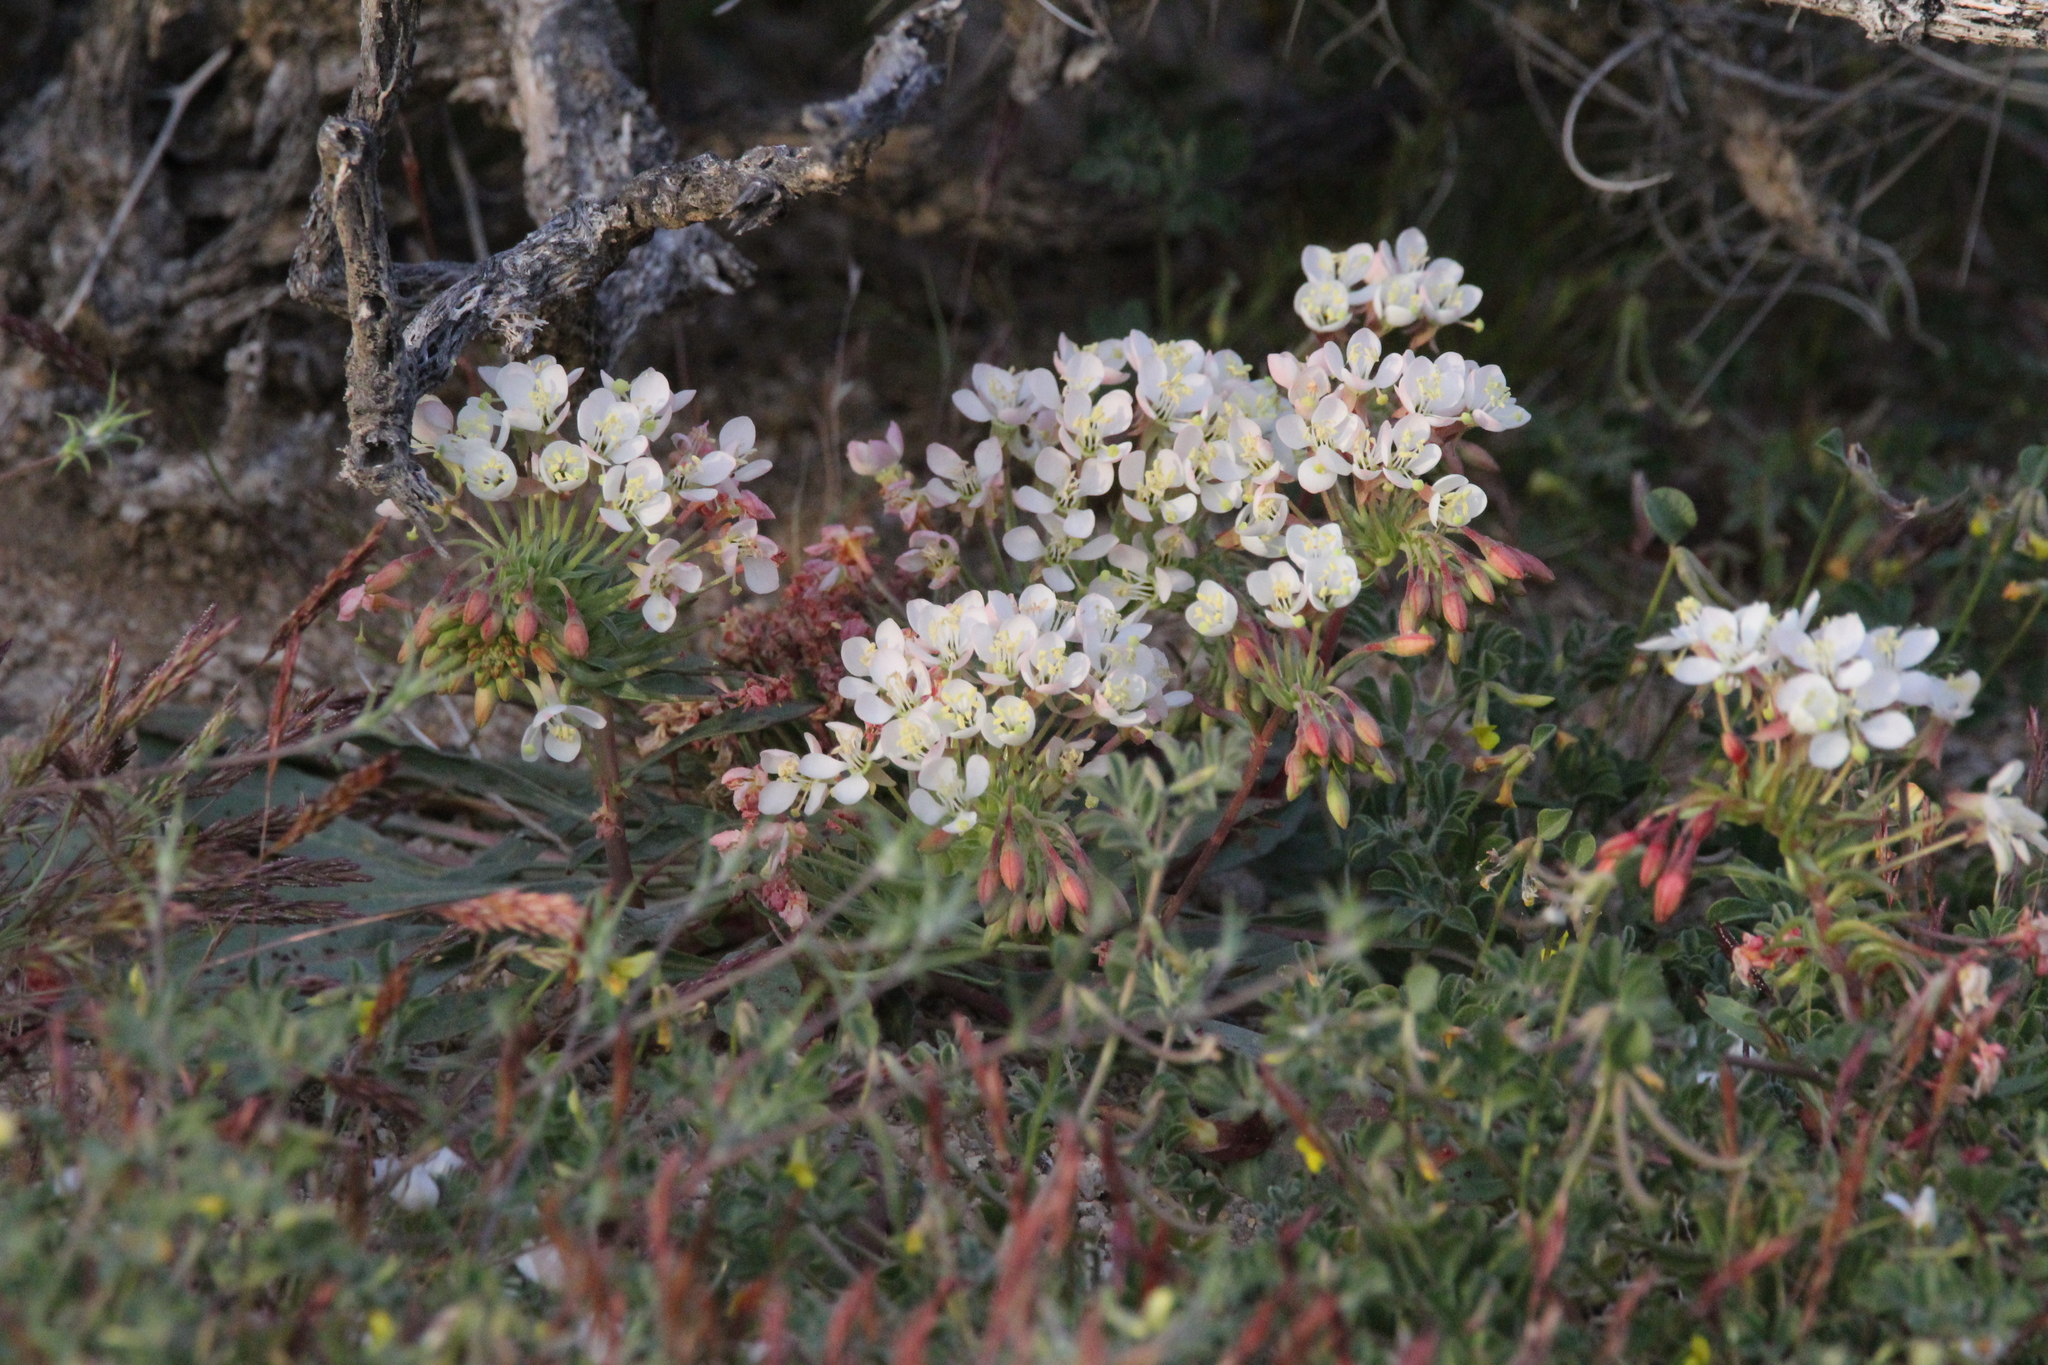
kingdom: Plantae
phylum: Tracheophyta
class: Magnoliopsida
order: Myrtales
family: Onagraceae
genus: Eremothera
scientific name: Eremothera boothii
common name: Booth's evening primrose
